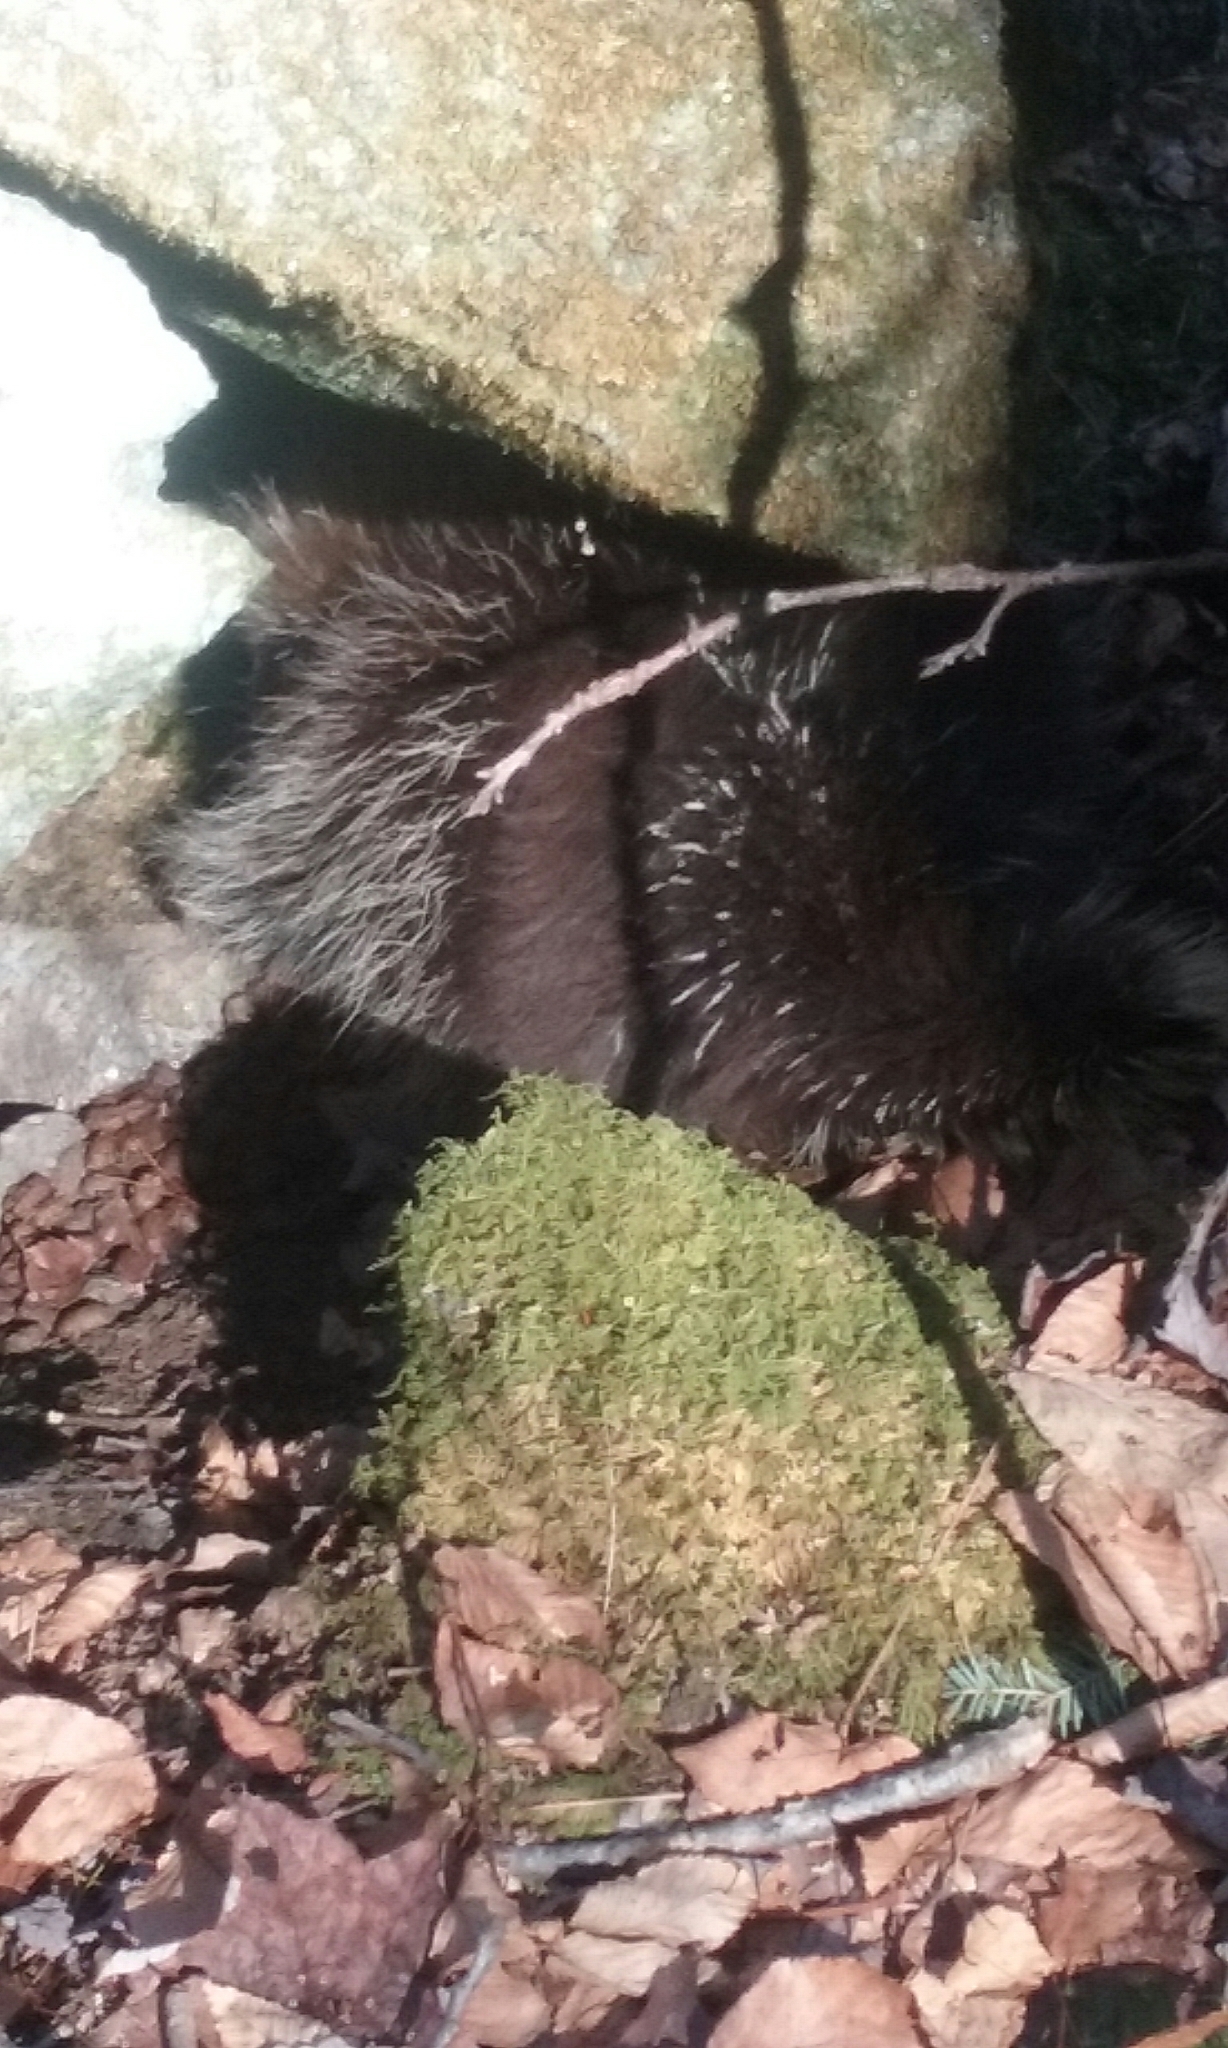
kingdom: Animalia
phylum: Chordata
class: Mammalia
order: Rodentia
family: Erethizontidae
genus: Erethizon
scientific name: Erethizon dorsatus
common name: North american porcupine
